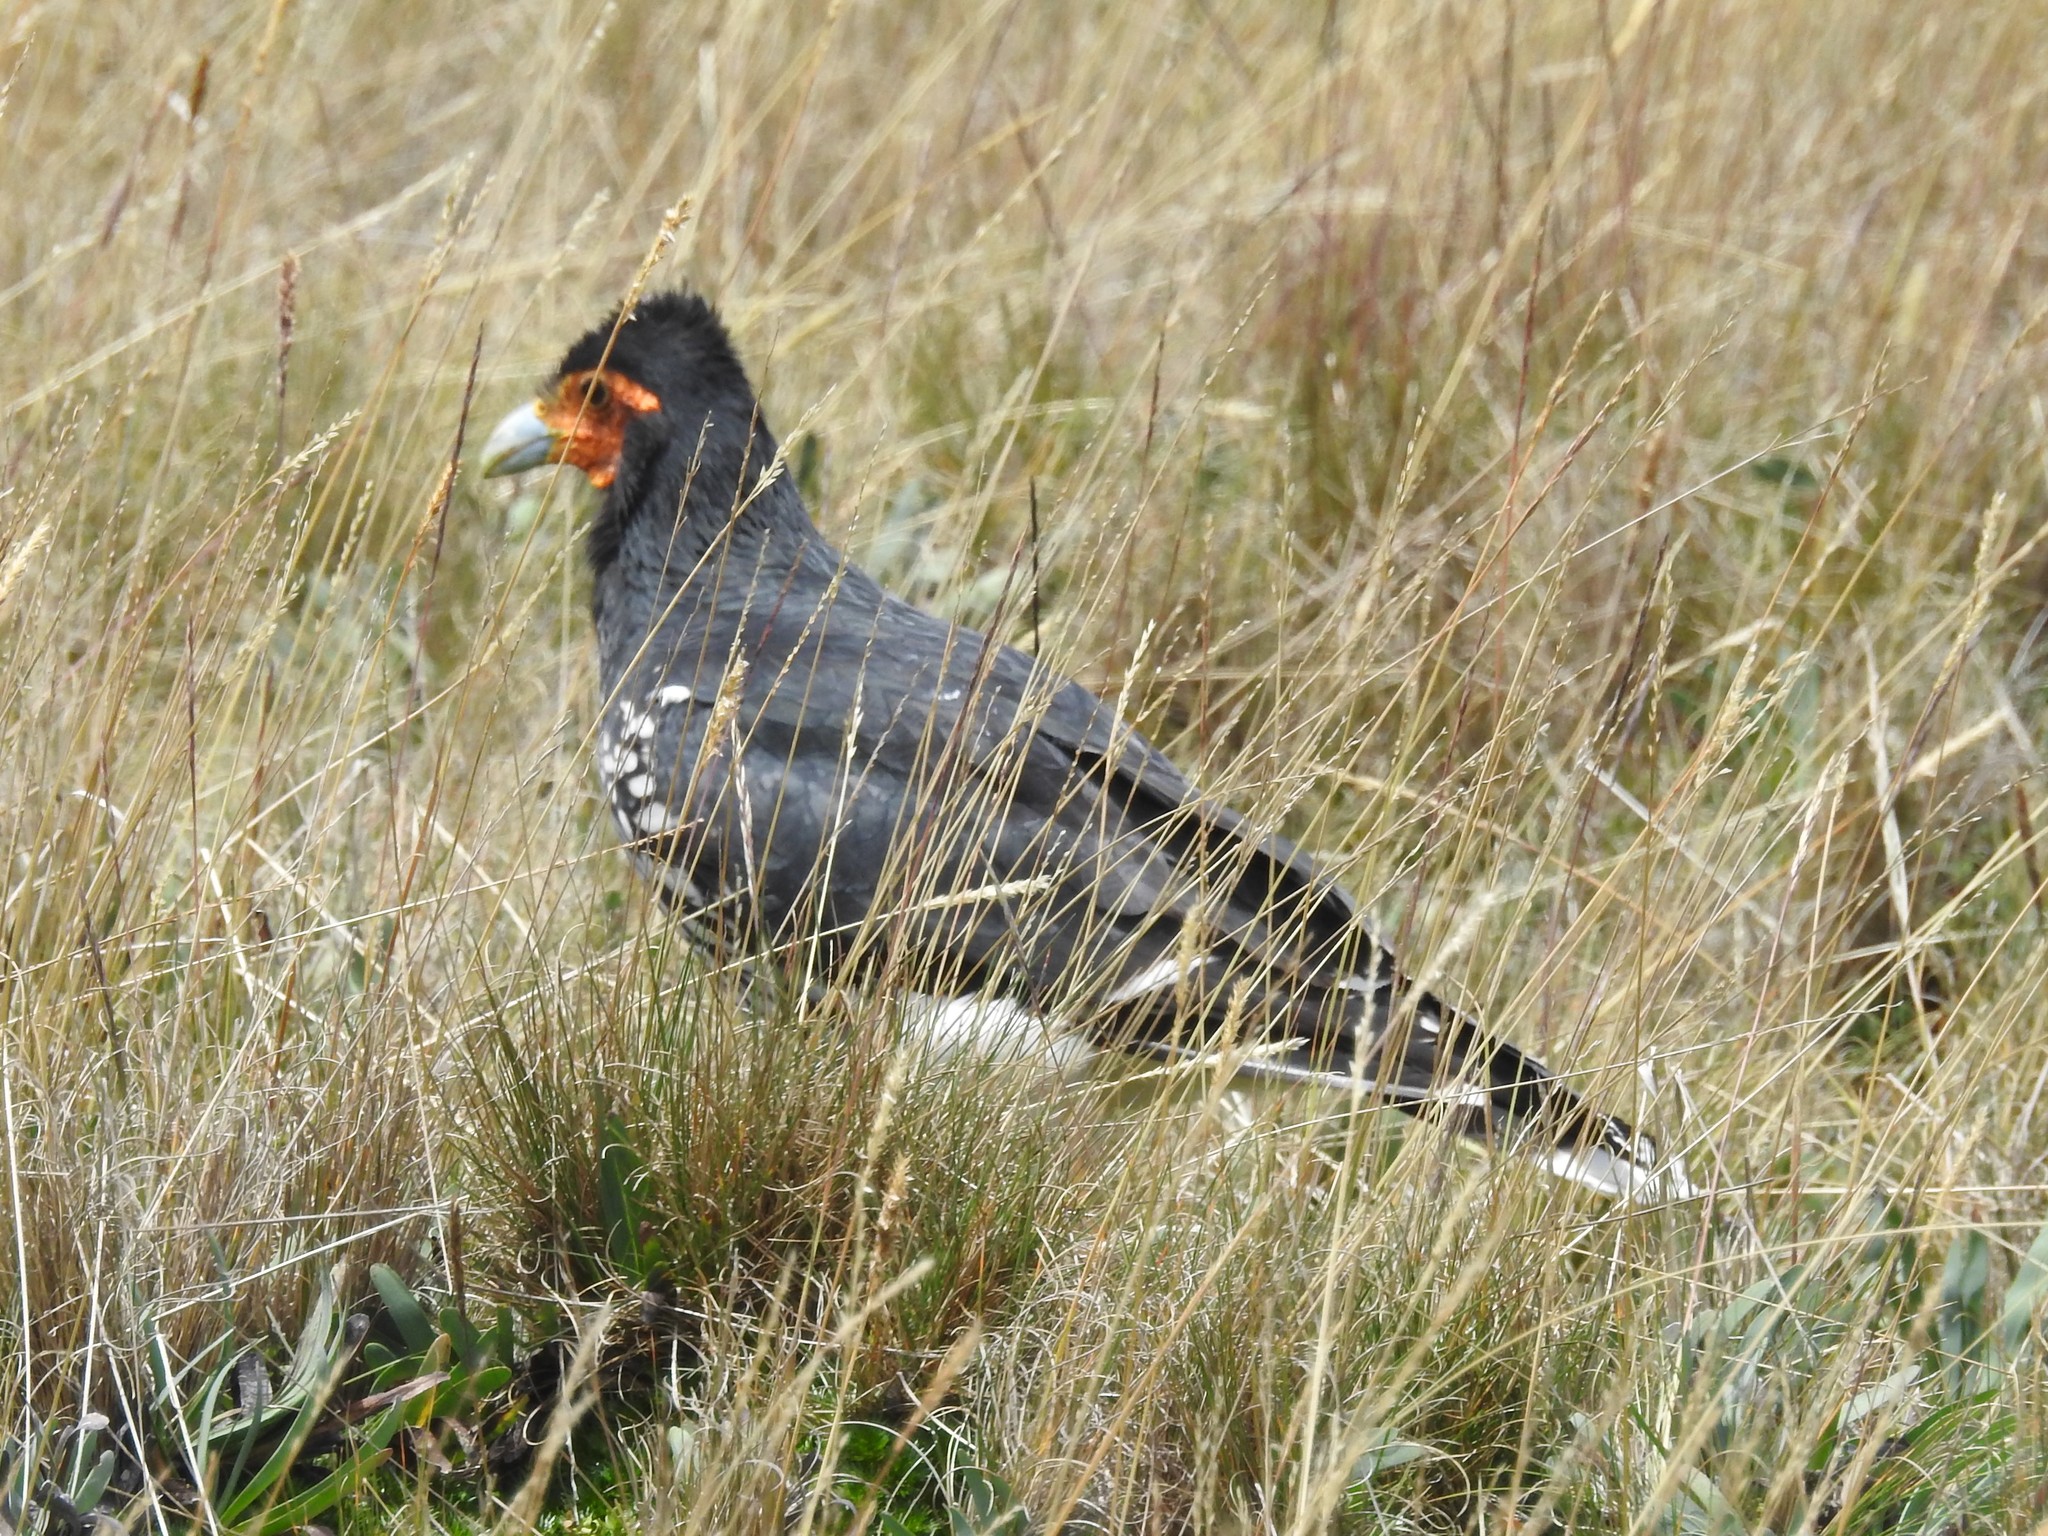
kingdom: Animalia
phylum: Chordata
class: Aves
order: Falconiformes
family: Falconidae
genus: Daptrius
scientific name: Daptrius
